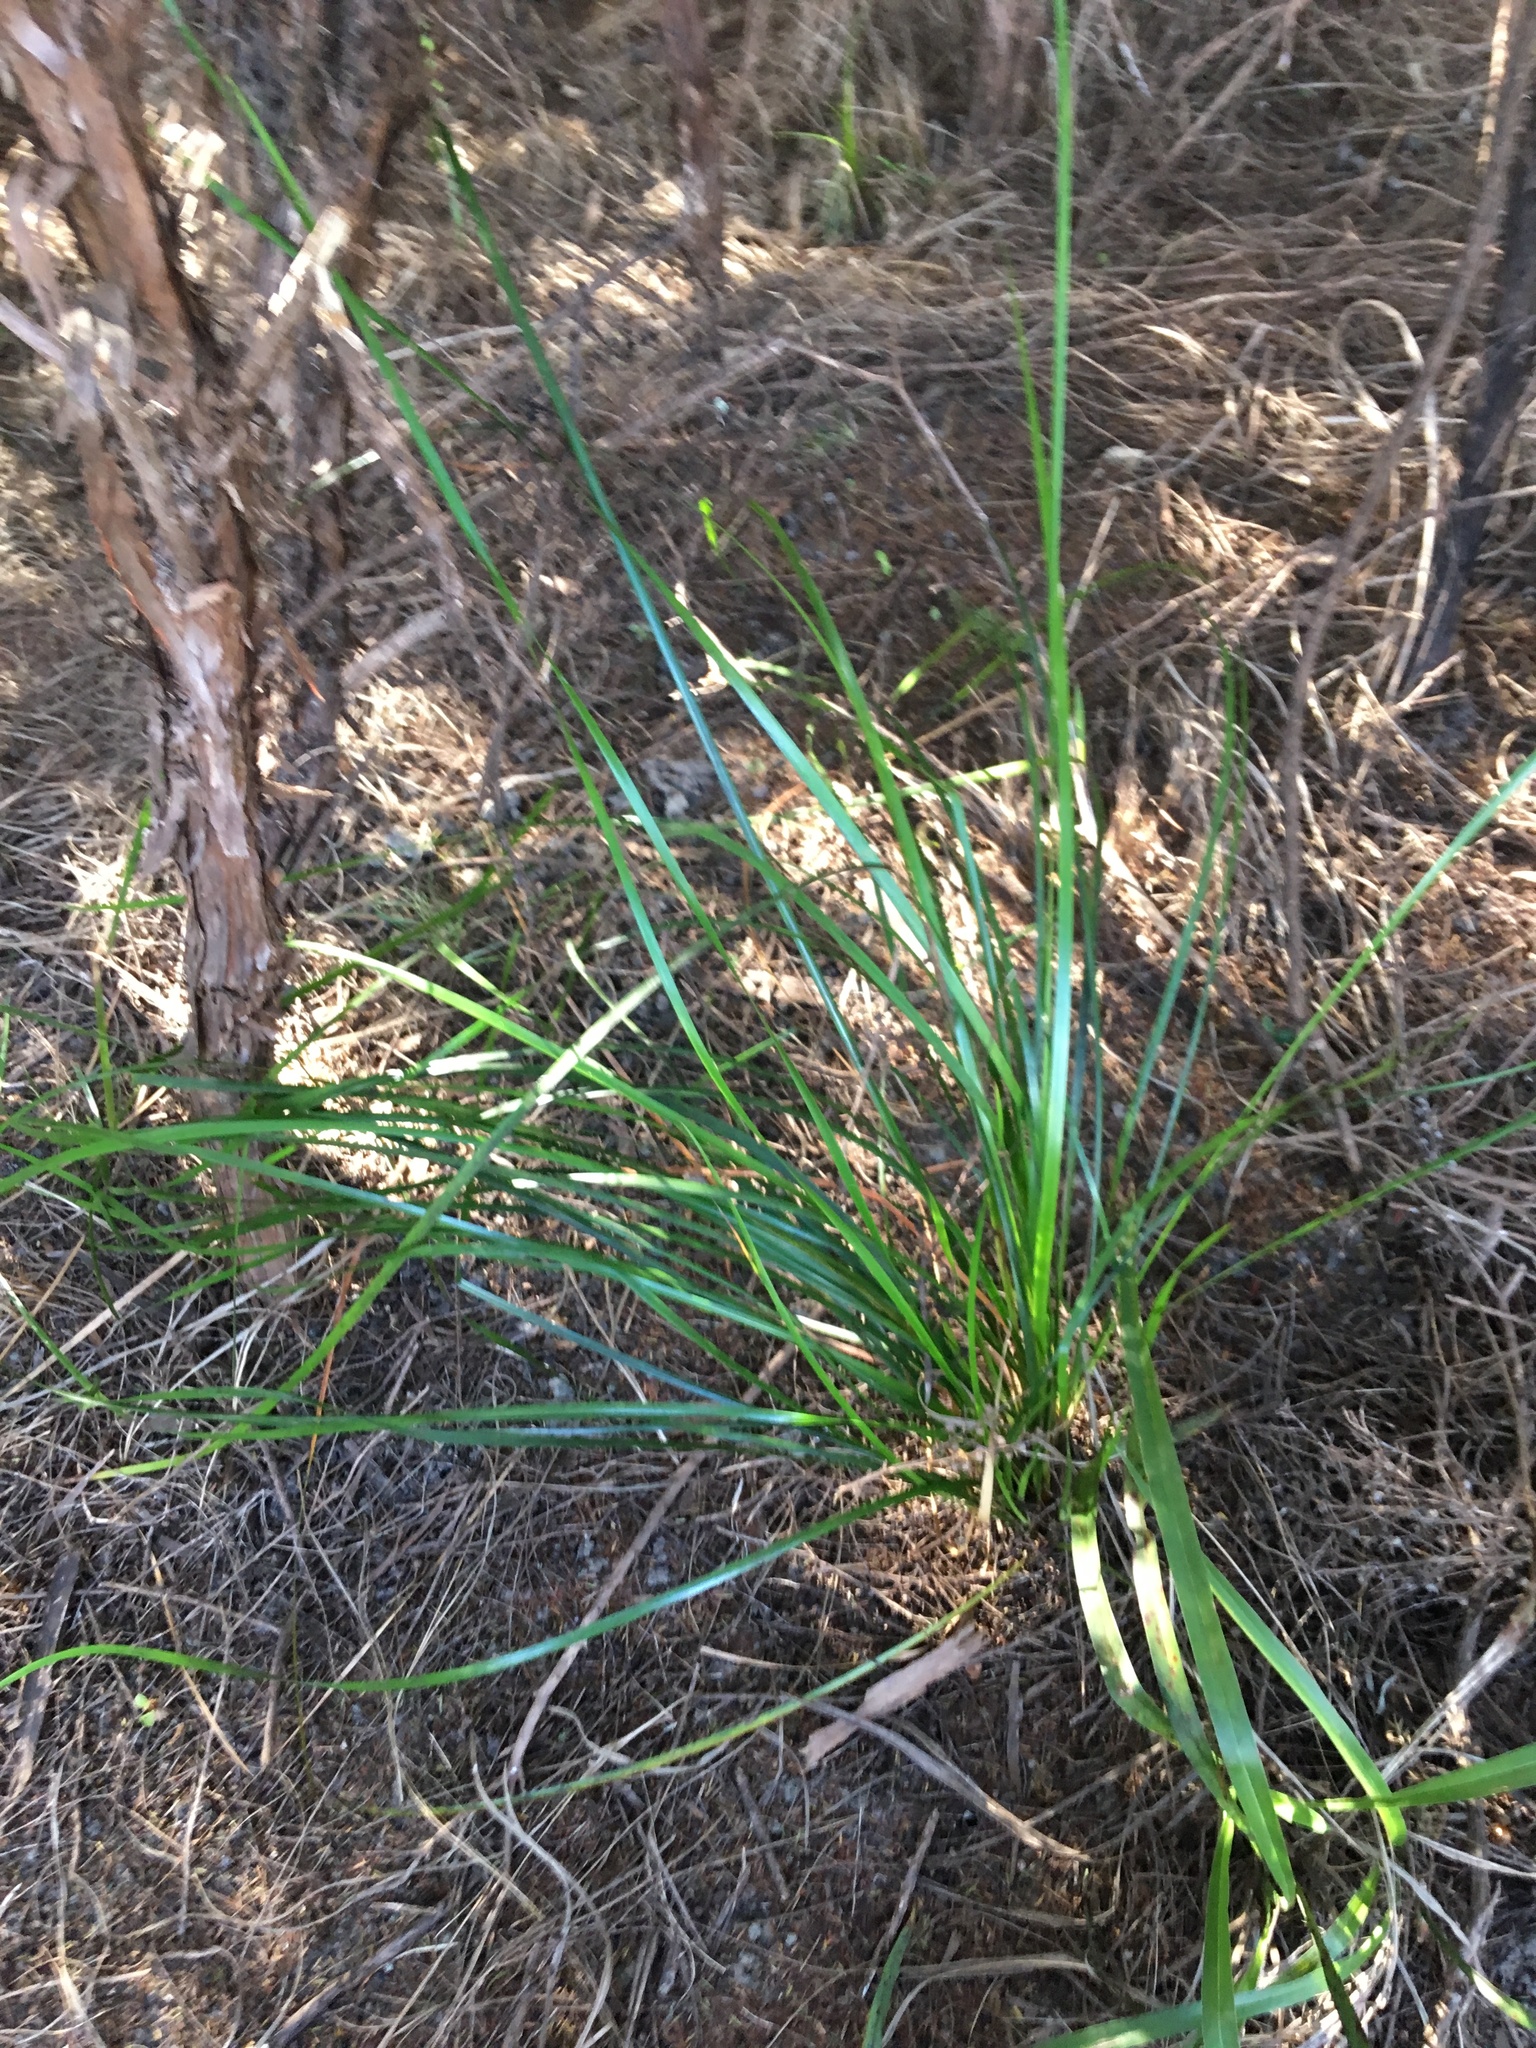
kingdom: Plantae
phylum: Tracheophyta
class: Liliopsida
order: Poales
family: Cyperaceae
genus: Lepidosperma
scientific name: Lepidosperma laterale
